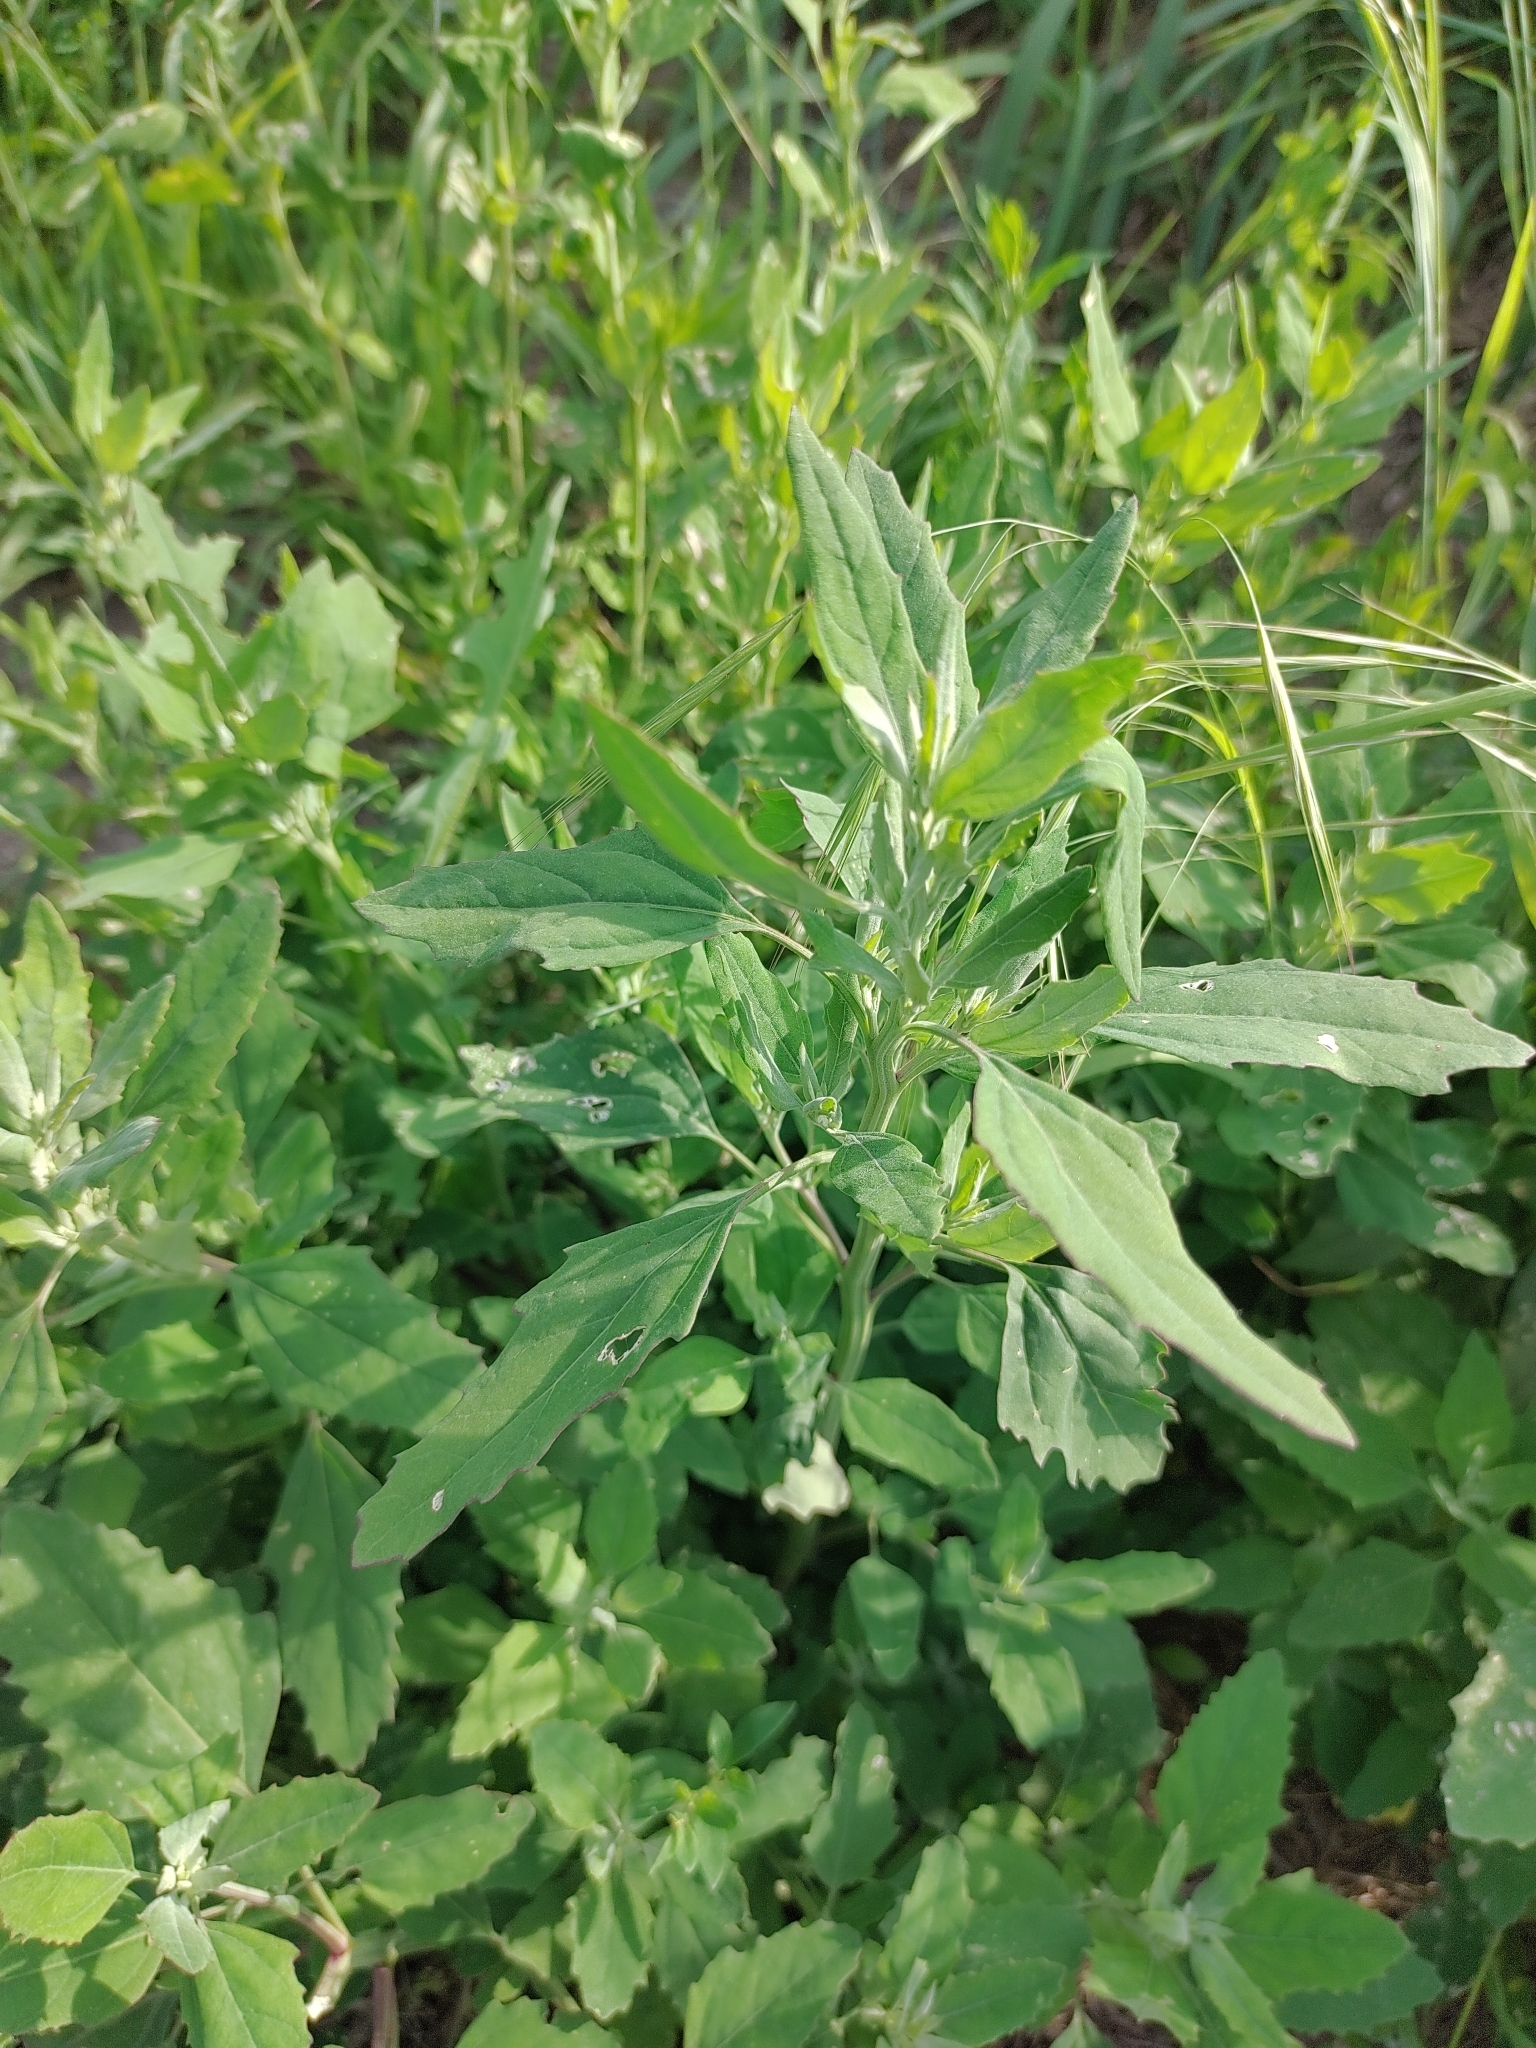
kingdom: Plantae
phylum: Tracheophyta
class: Magnoliopsida
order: Caryophyllales
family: Amaranthaceae
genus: Chenopodium
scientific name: Chenopodium album
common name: Fat-hen
